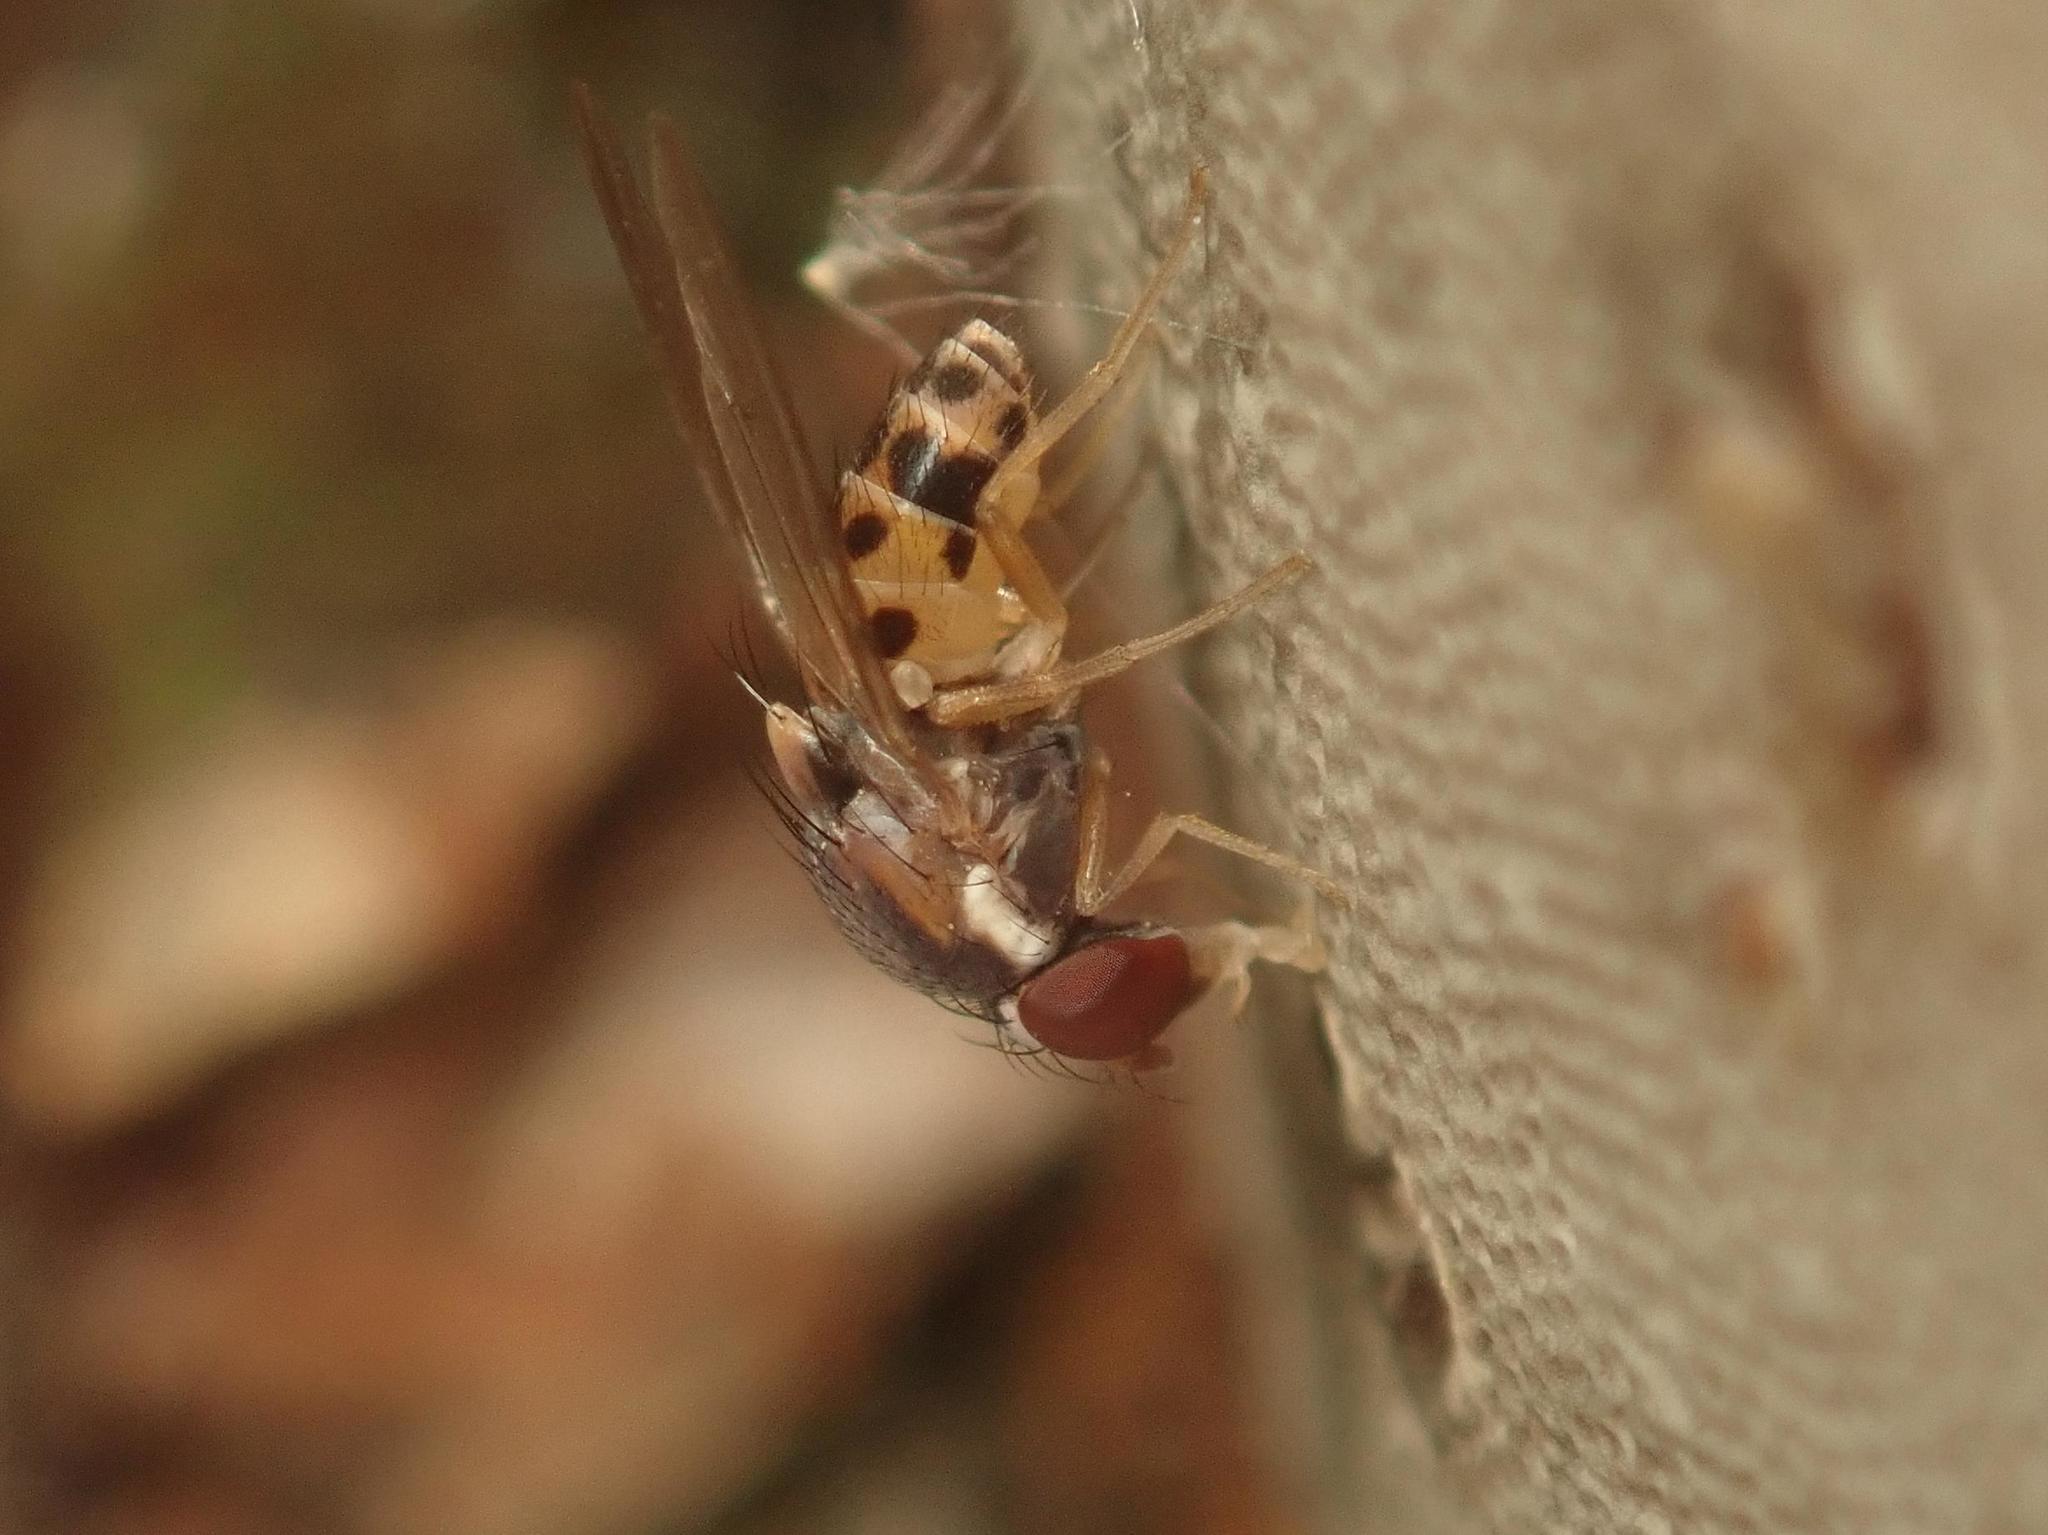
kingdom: Animalia
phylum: Arthropoda
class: Insecta
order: Diptera
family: Drosophilidae
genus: Leucophenga
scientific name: Leucophenga maculata
